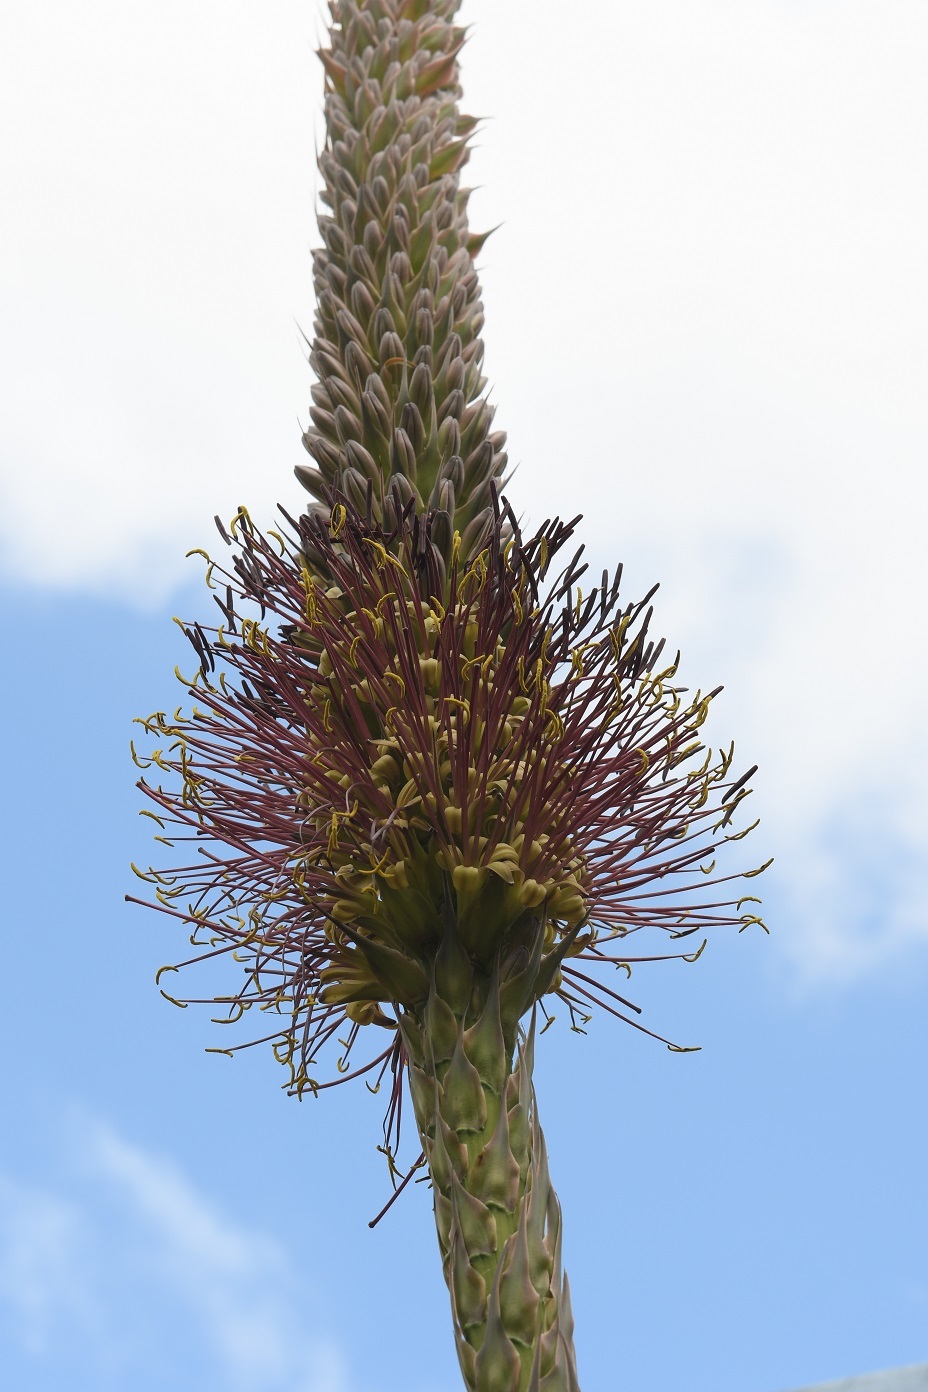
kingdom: Plantae
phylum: Tracheophyta
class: Liliopsida
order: Asparagales
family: Asparagaceae
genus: Agave
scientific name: Agave warelliana
